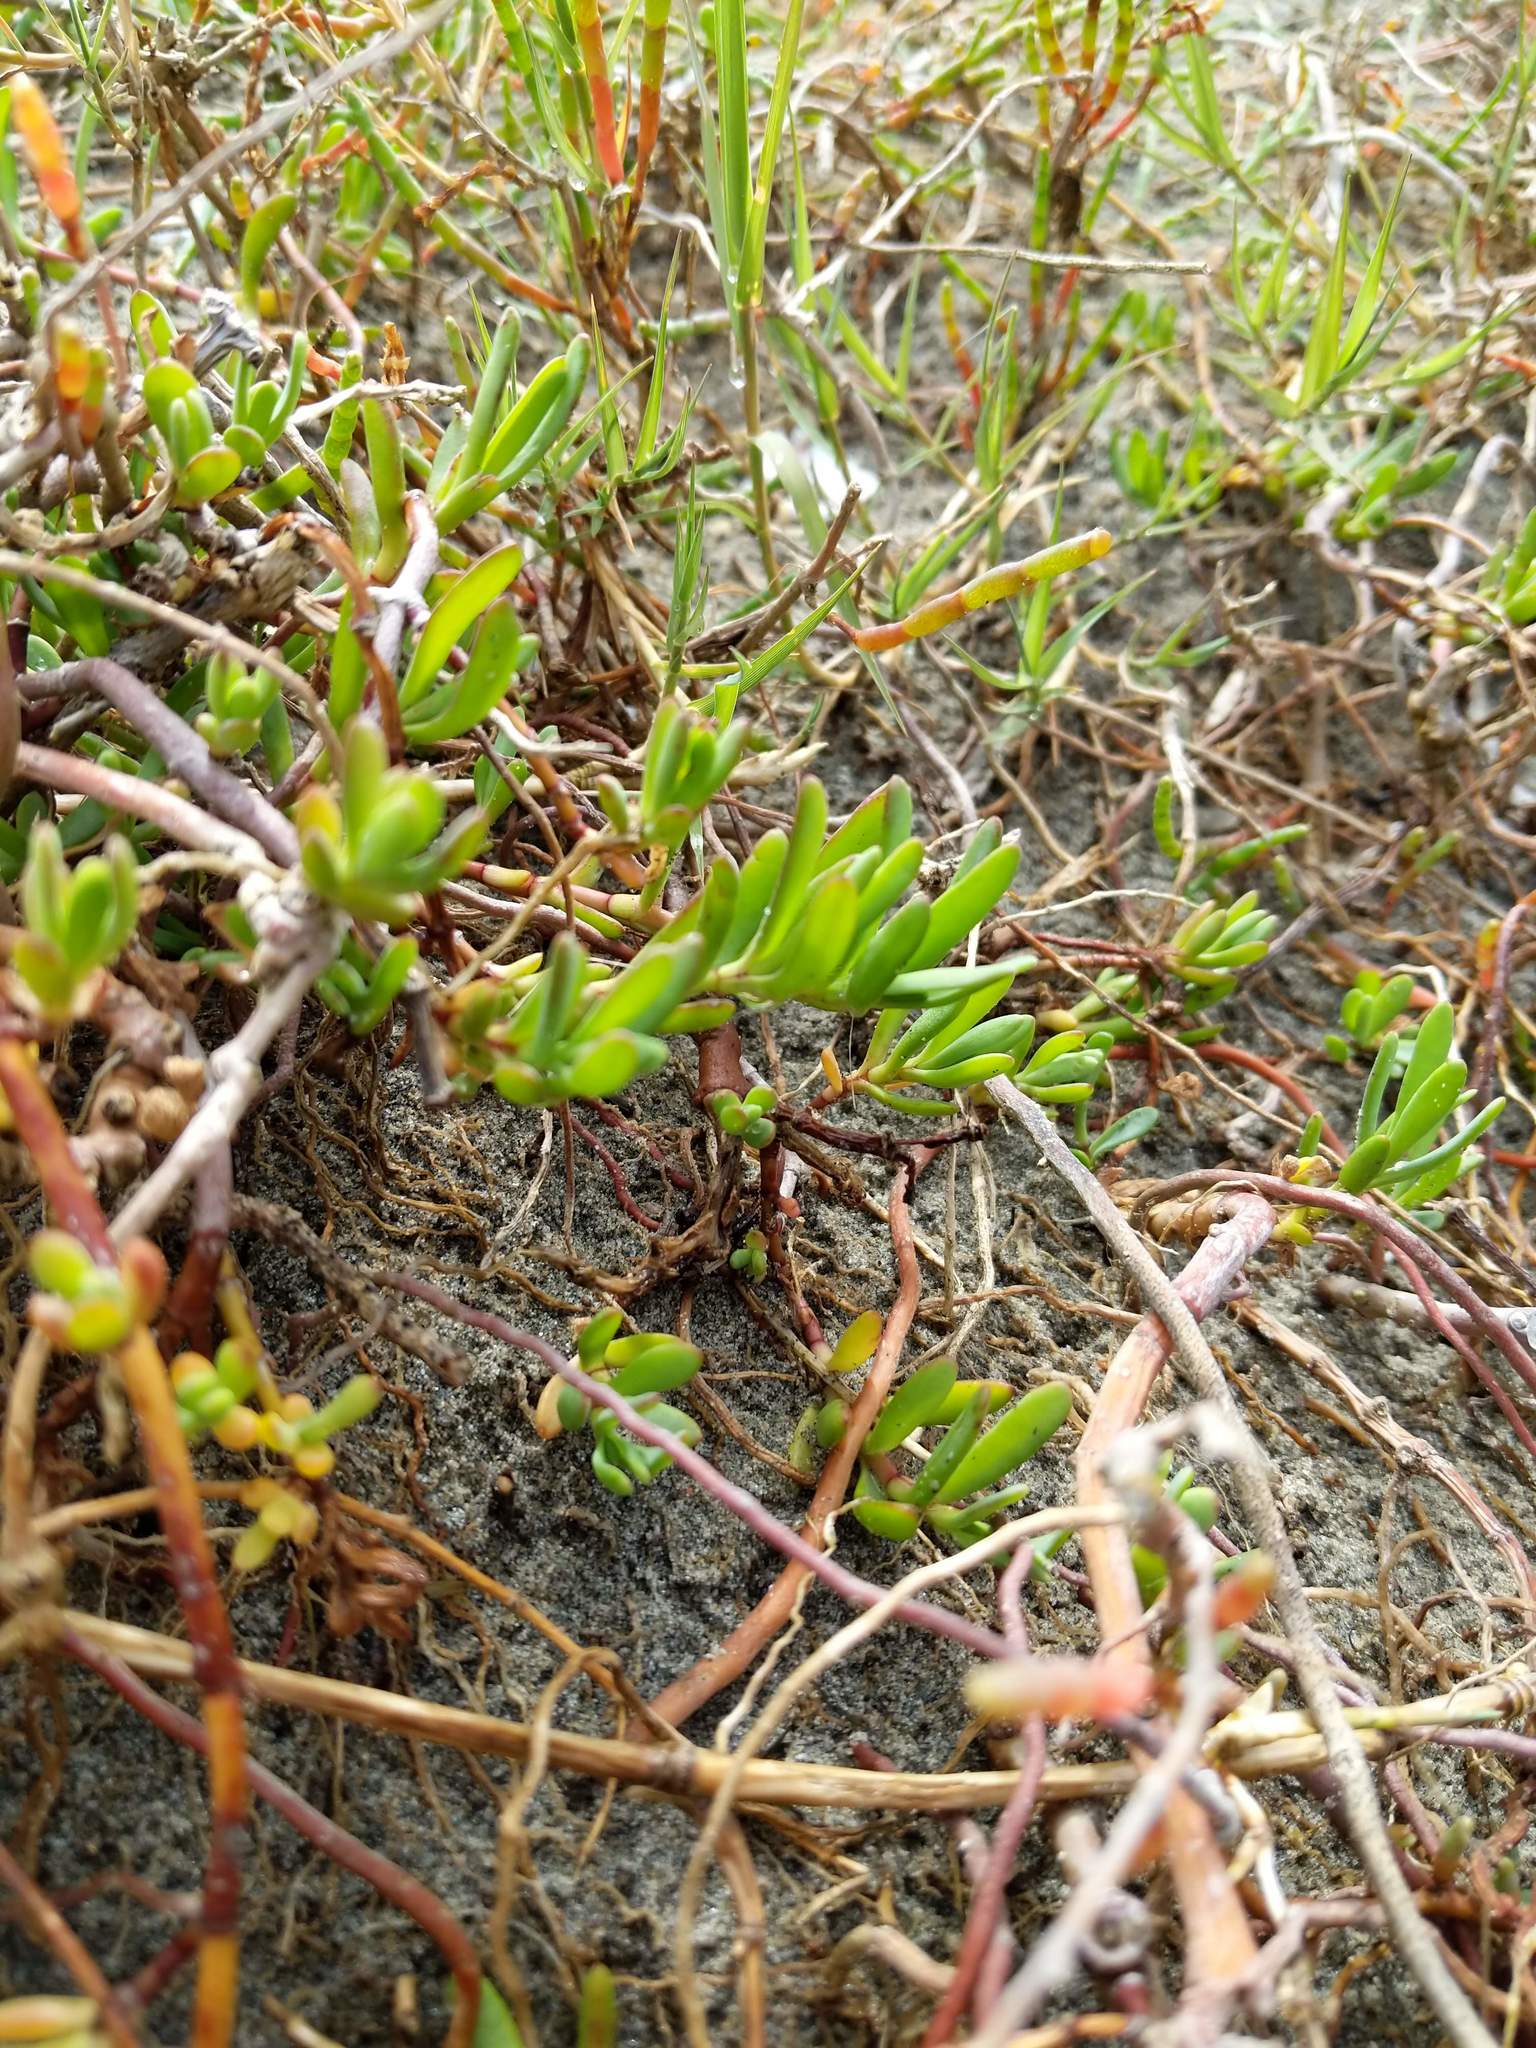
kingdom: Plantae
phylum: Tracheophyta
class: Magnoliopsida
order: Asterales
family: Asteraceae
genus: Jaumea
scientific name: Jaumea carnosa
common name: Fleshy jaumea
